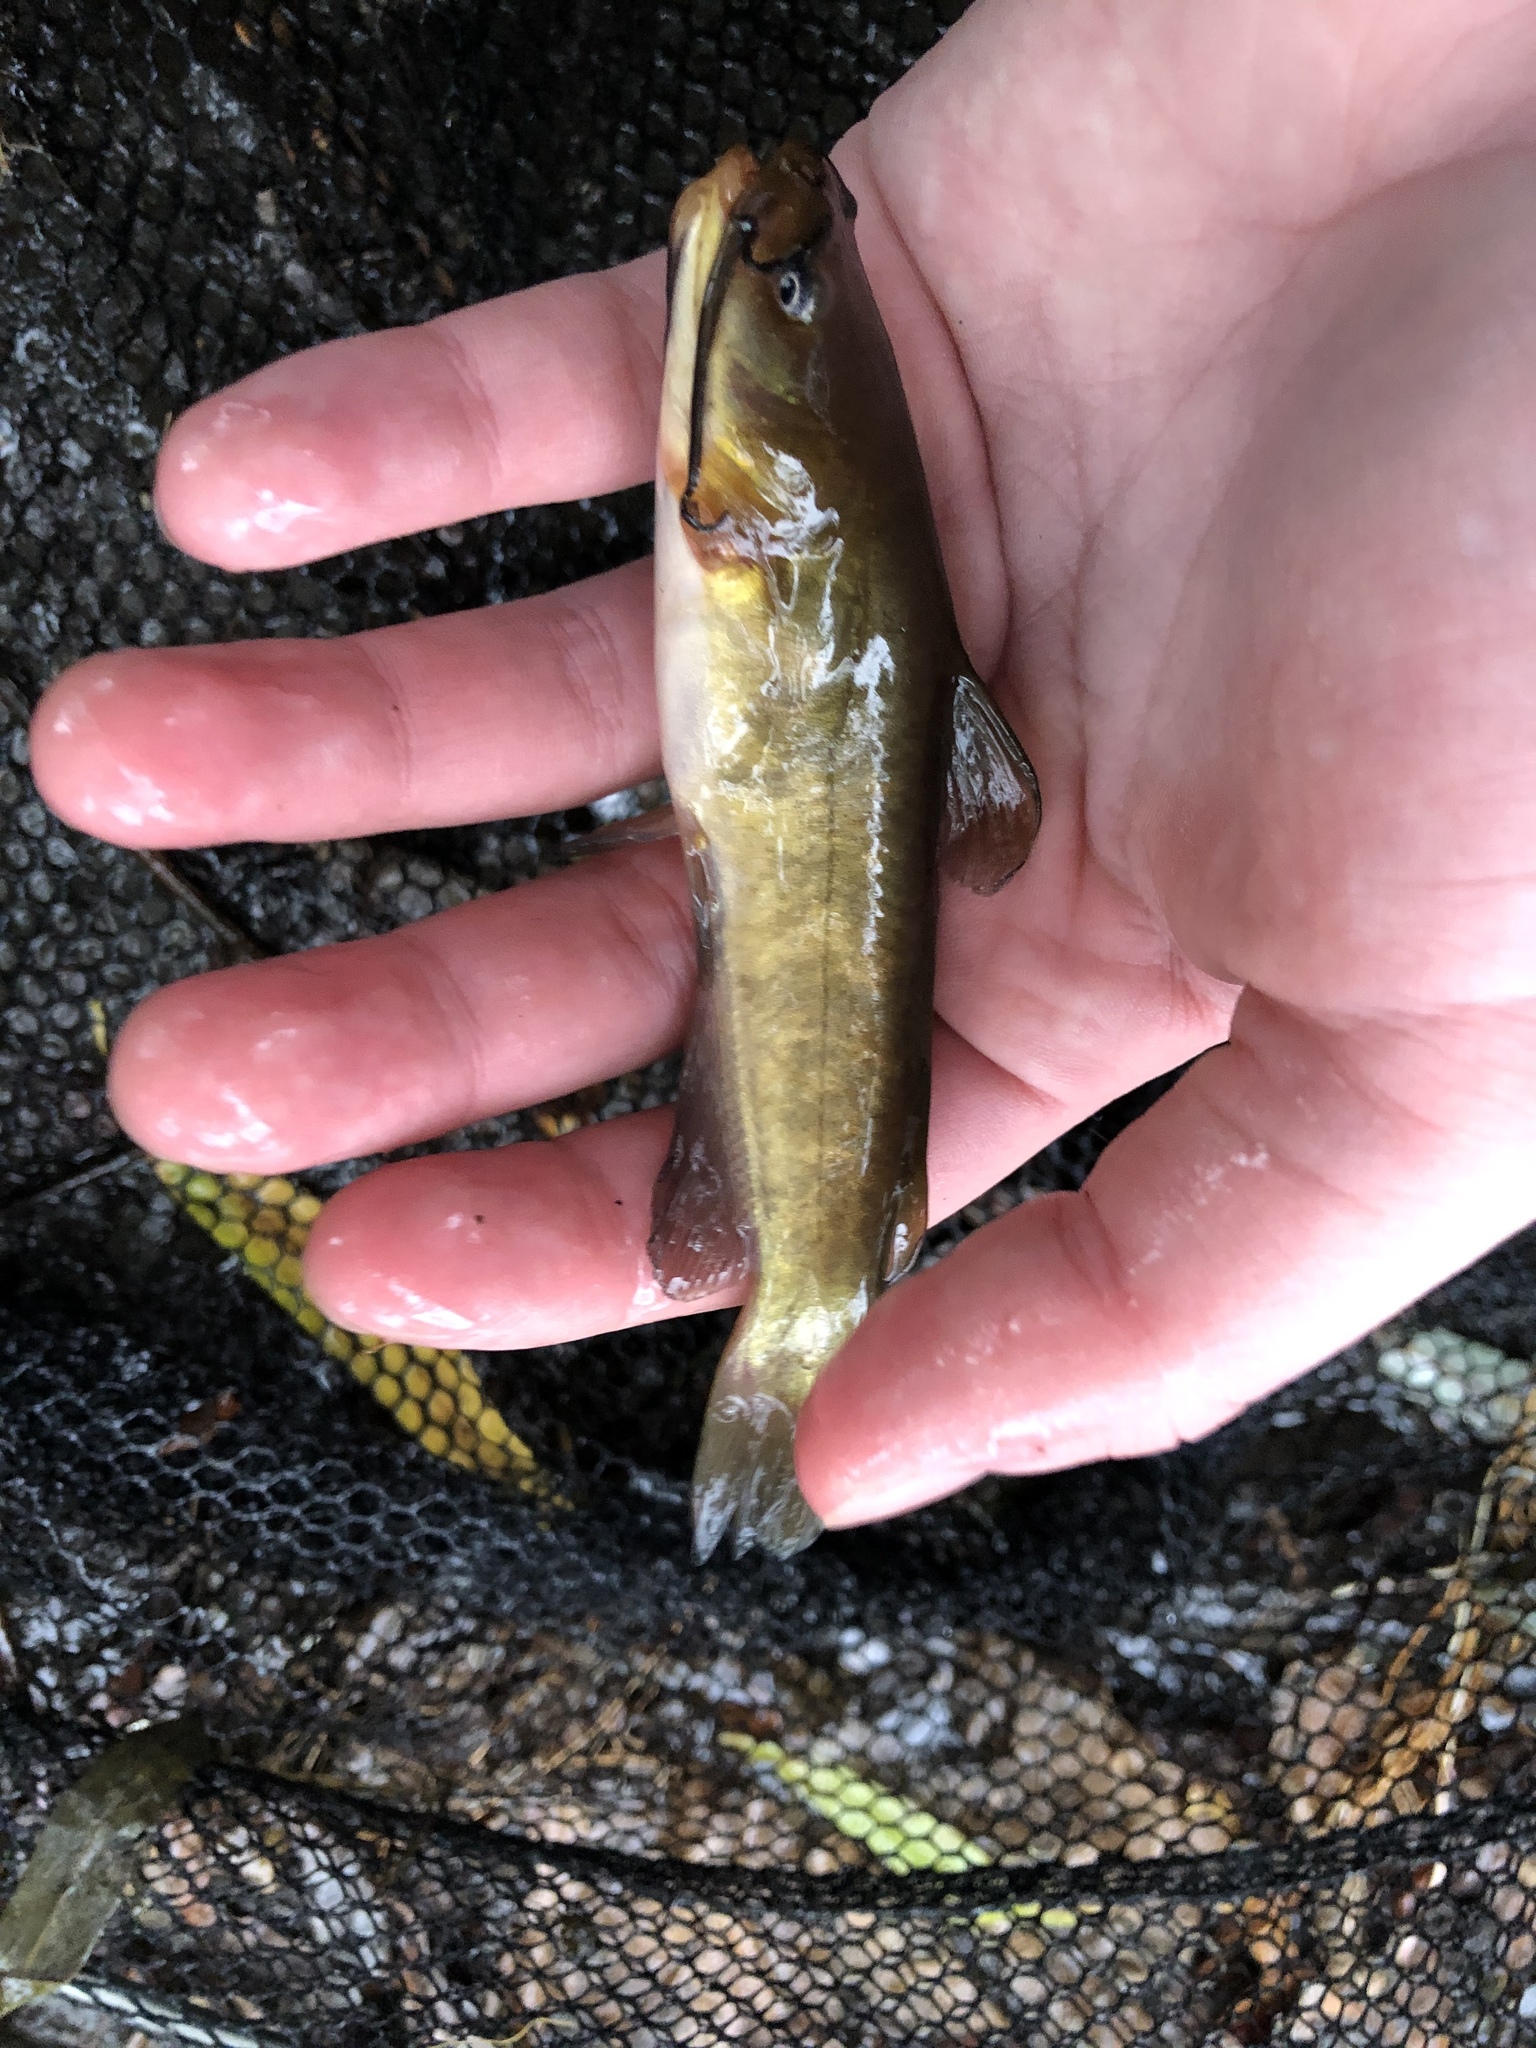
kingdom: Animalia
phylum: Chordata
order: Siluriformes
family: Ictaluridae
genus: Ameiurus
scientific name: Ameiurus nebulosus
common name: Brown bullhead
